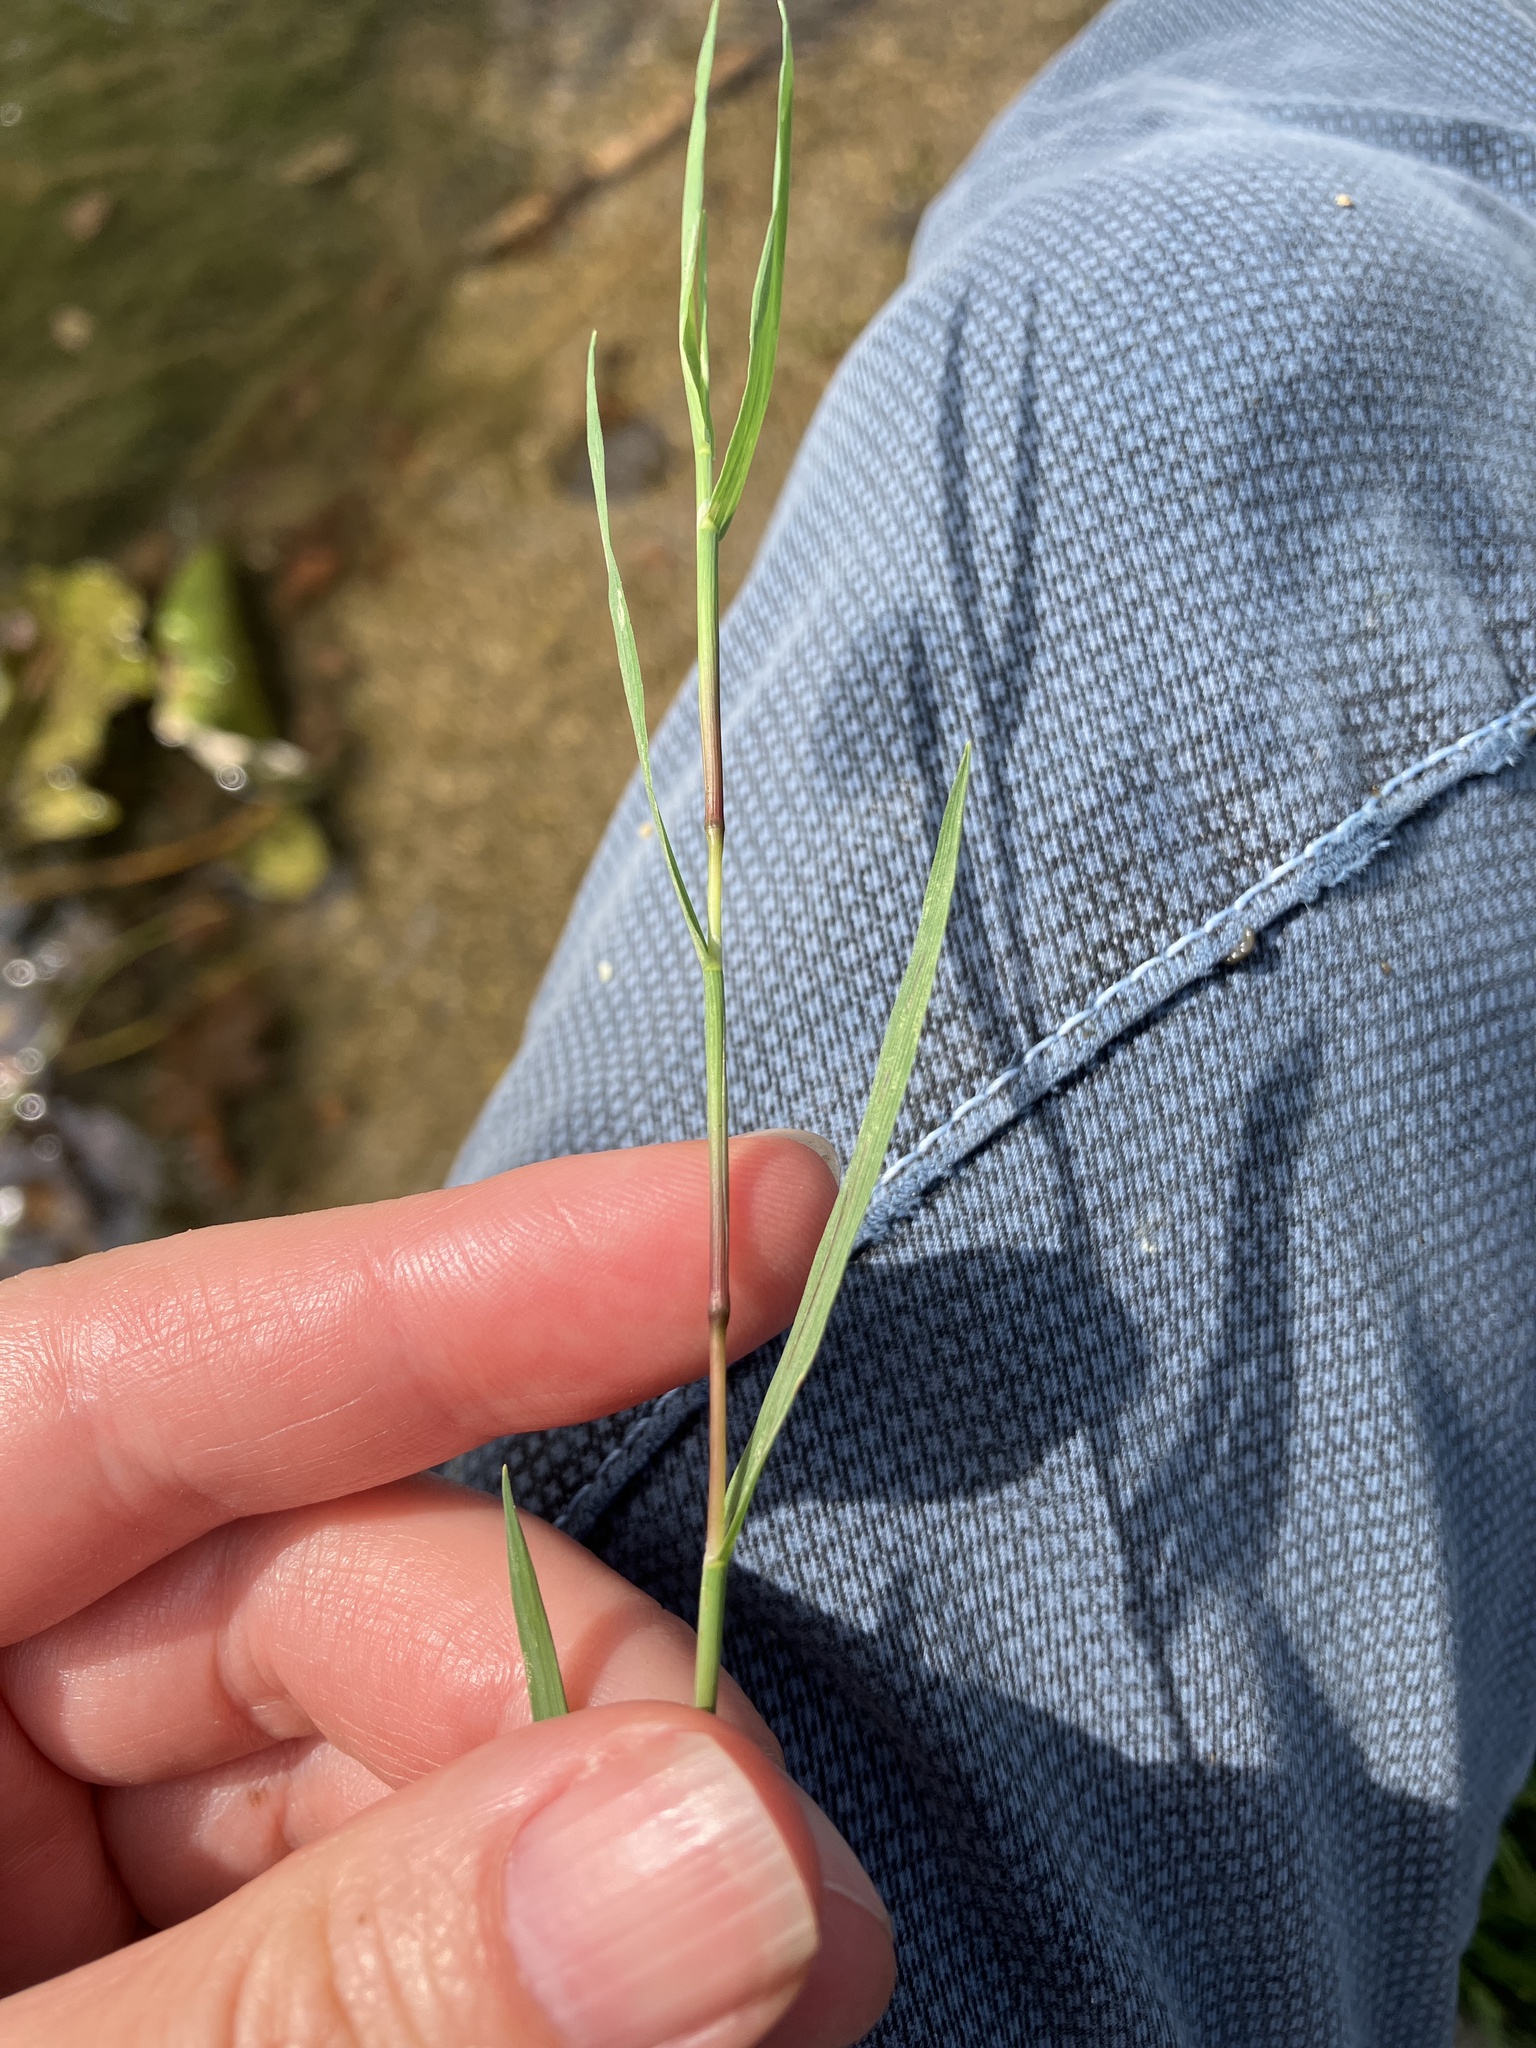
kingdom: Plantae
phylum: Tracheophyta
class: Liliopsida
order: Poales
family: Poaceae
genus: Agrostis
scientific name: Agrostis stolonifera
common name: Creeping bentgrass
